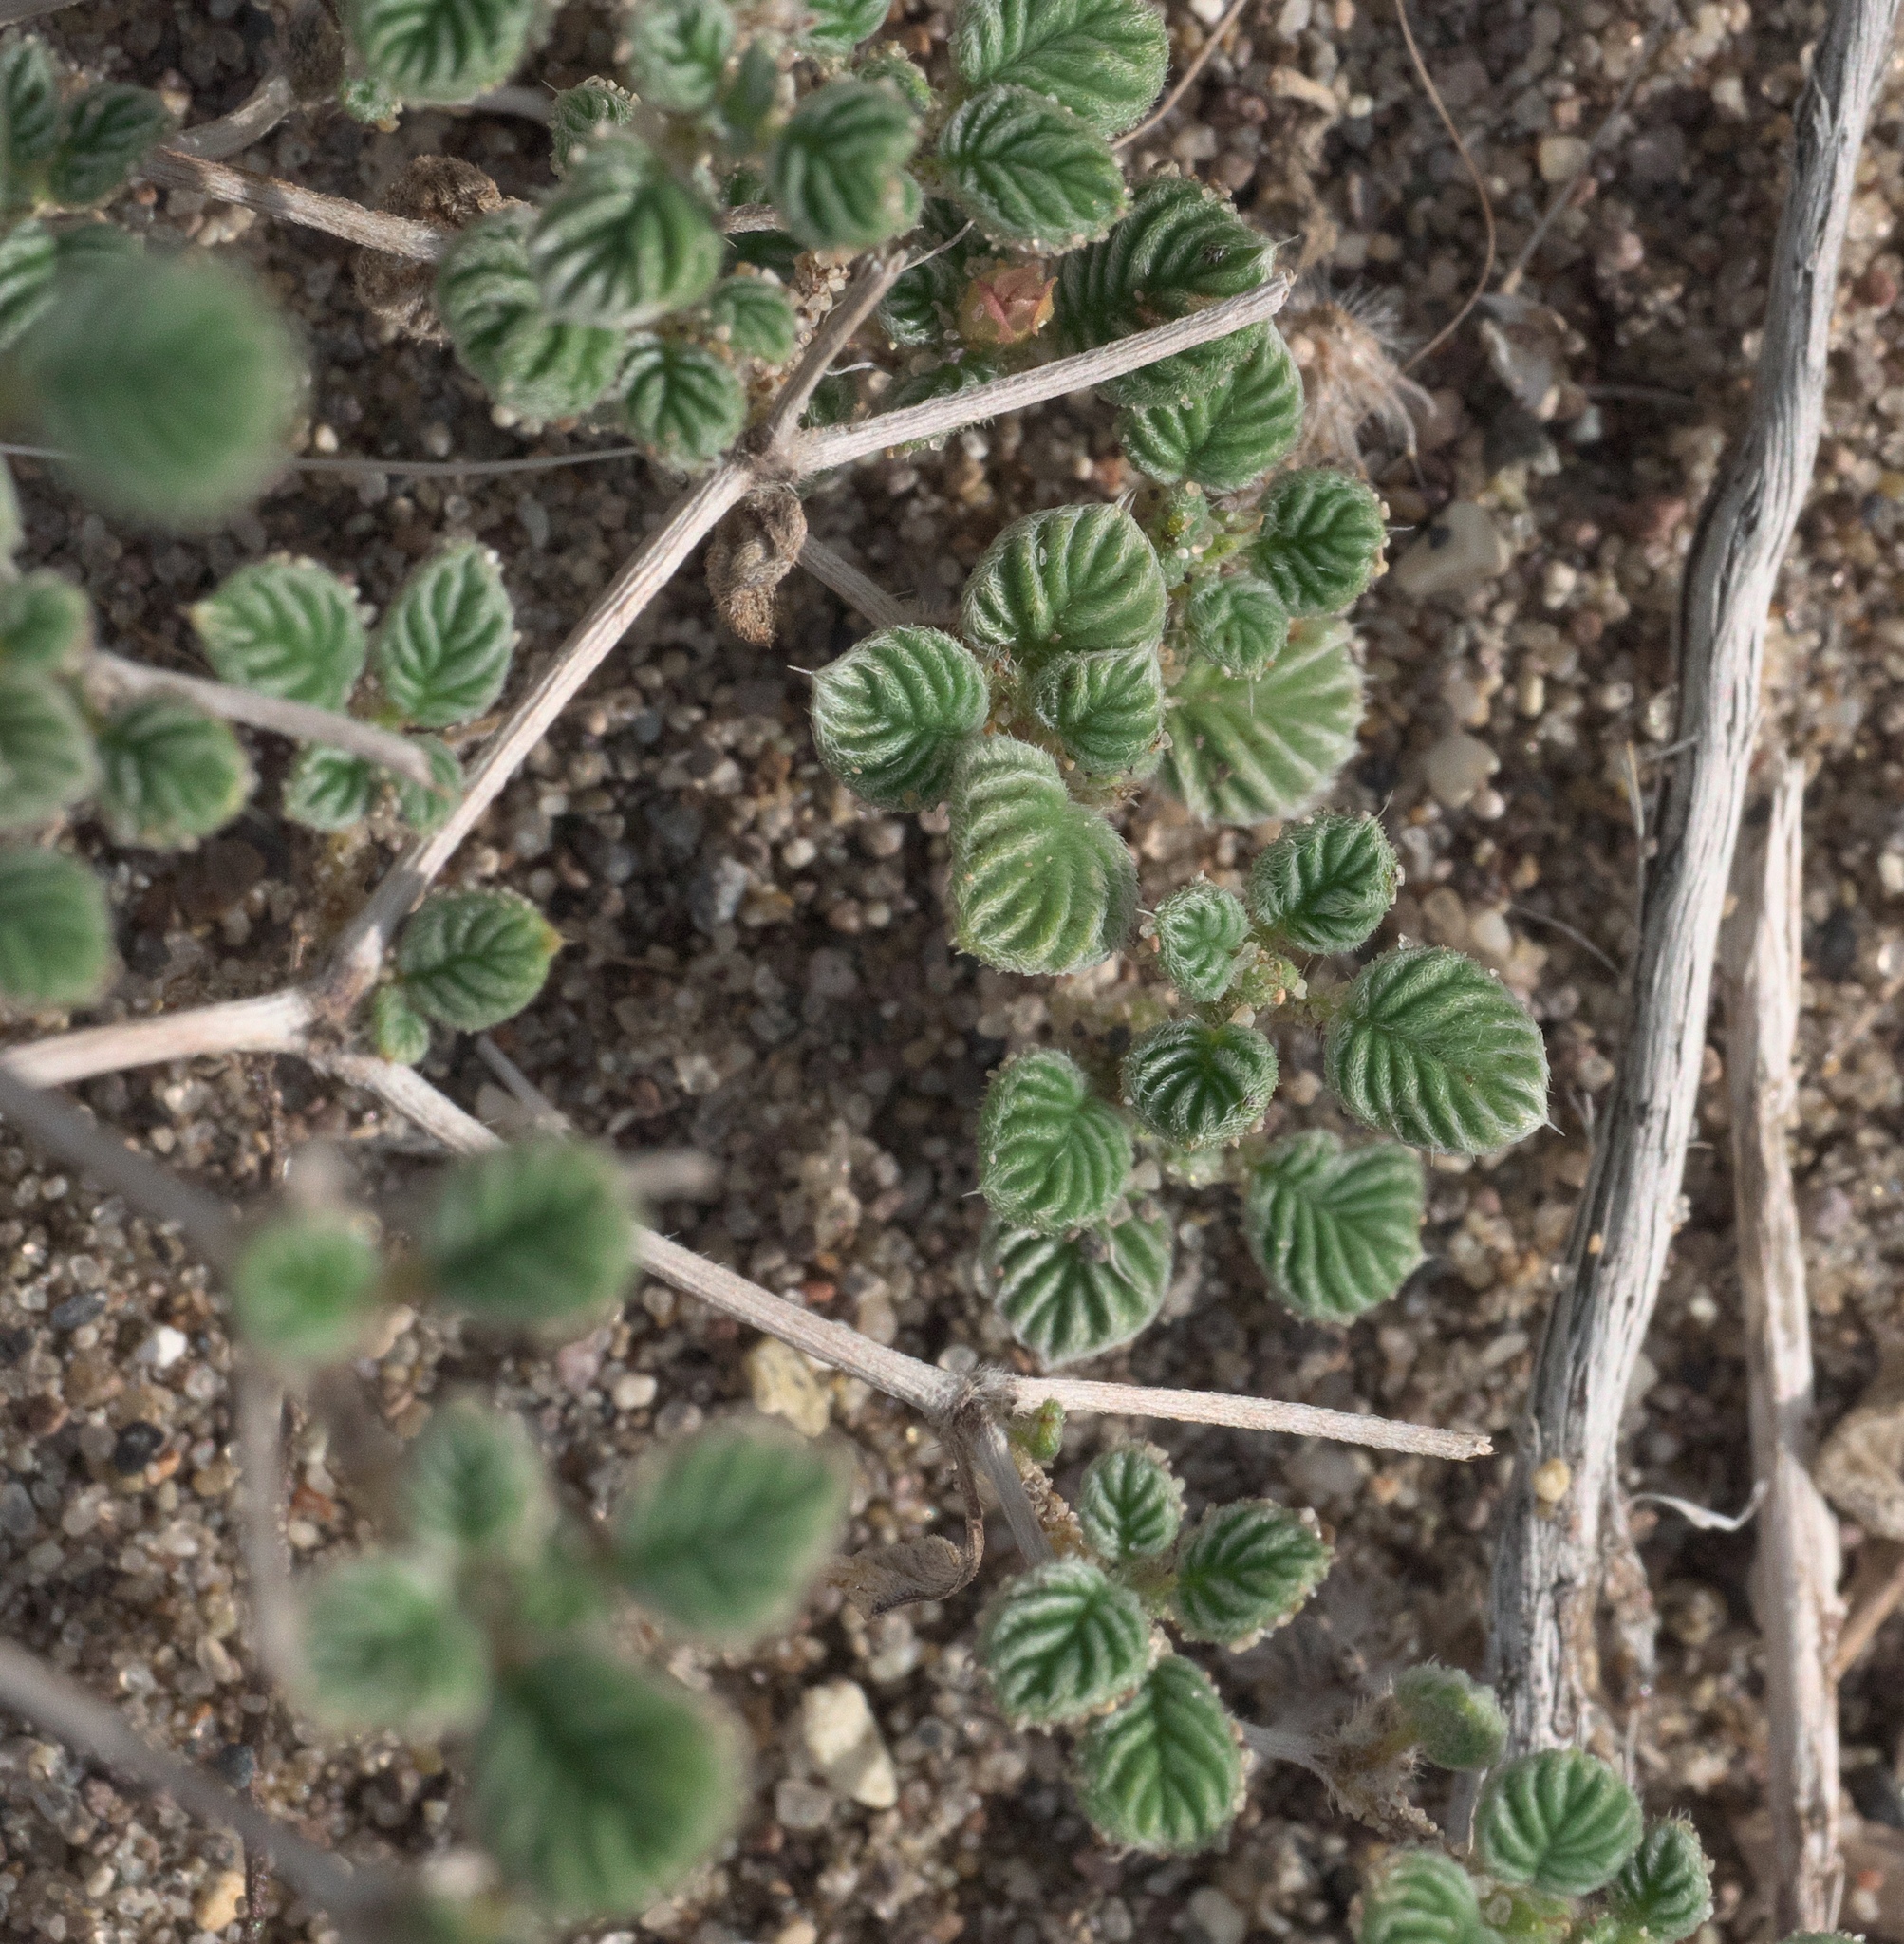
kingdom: Plantae
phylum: Tracheophyta
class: Magnoliopsida
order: Boraginales
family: Ehretiaceae
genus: Tiquilia
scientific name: Tiquilia plicata
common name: Fan-leaf tiquilia
